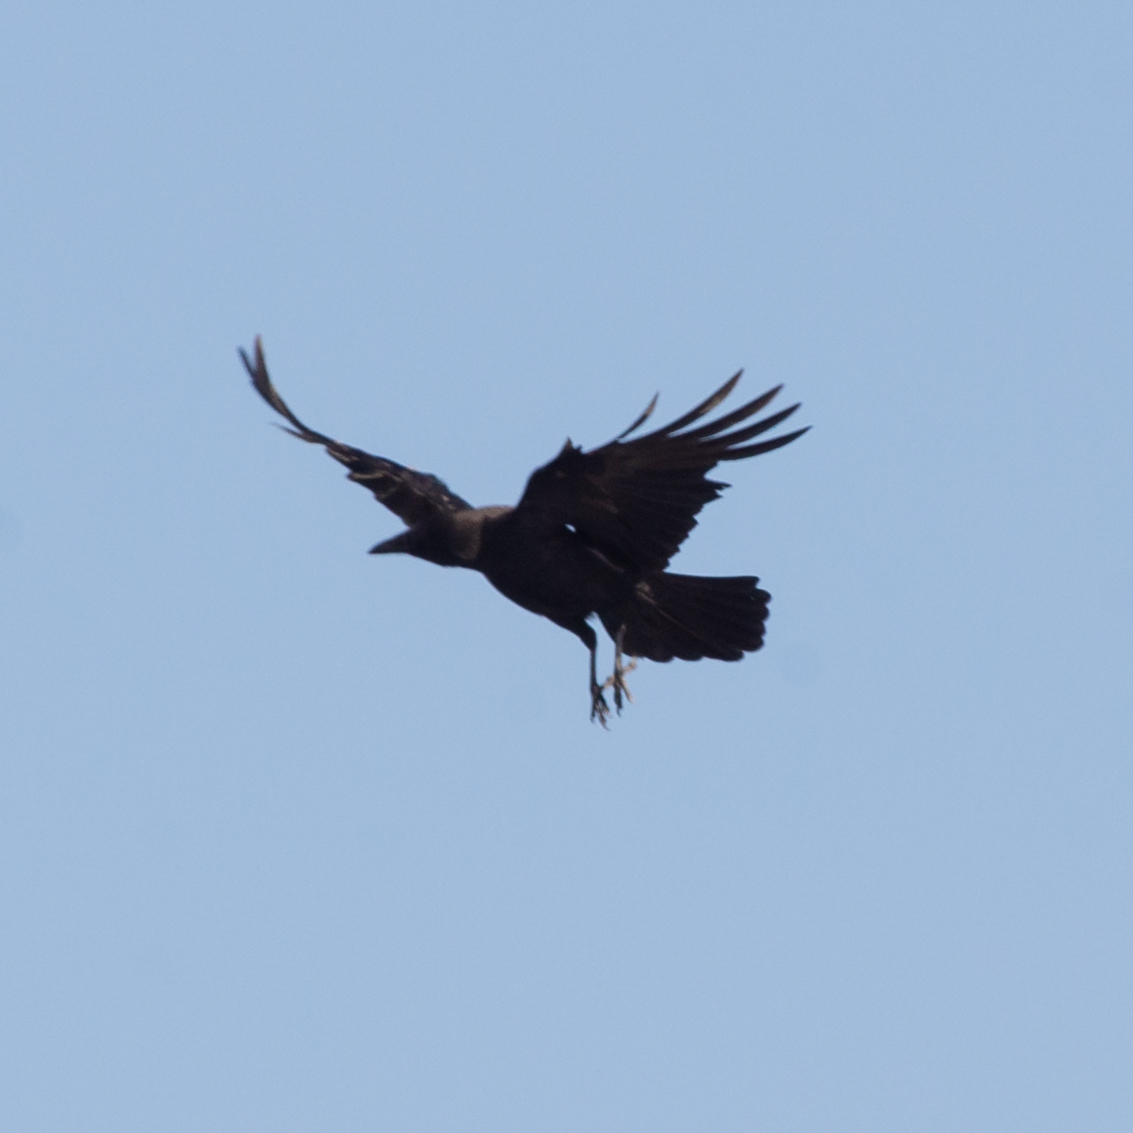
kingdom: Animalia
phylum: Chordata
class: Aves
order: Passeriformes
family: Corvidae
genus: Corvus
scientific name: Corvus corone
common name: Carrion crow
